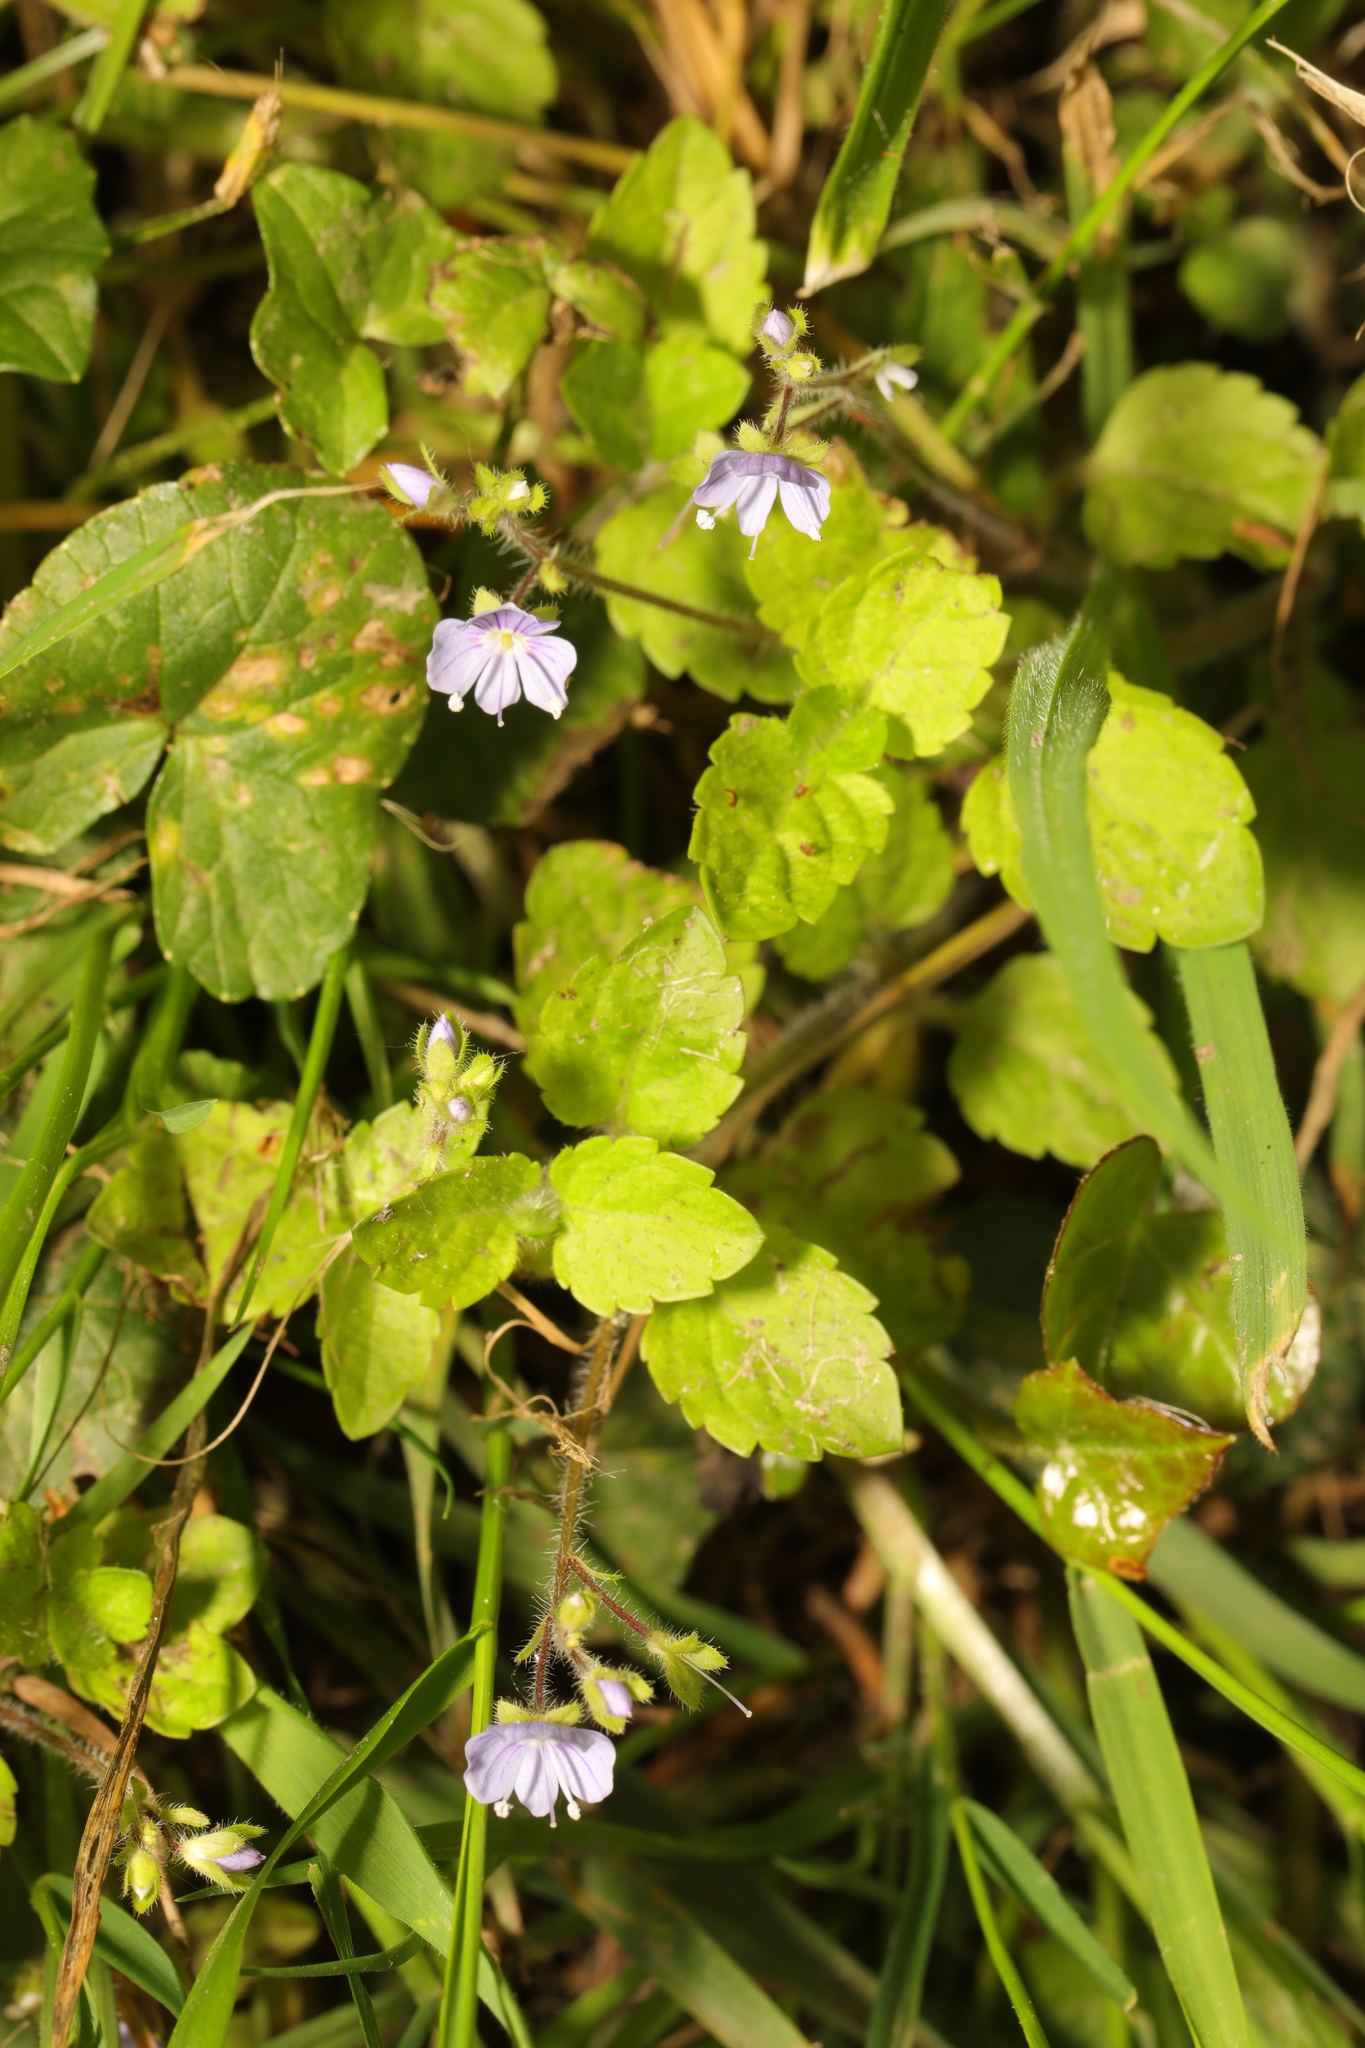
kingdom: Plantae
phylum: Tracheophyta
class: Magnoliopsida
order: Lamiales
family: Plantaginaceae
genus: Veronica
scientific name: Veronica montana
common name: Wood speedwell
